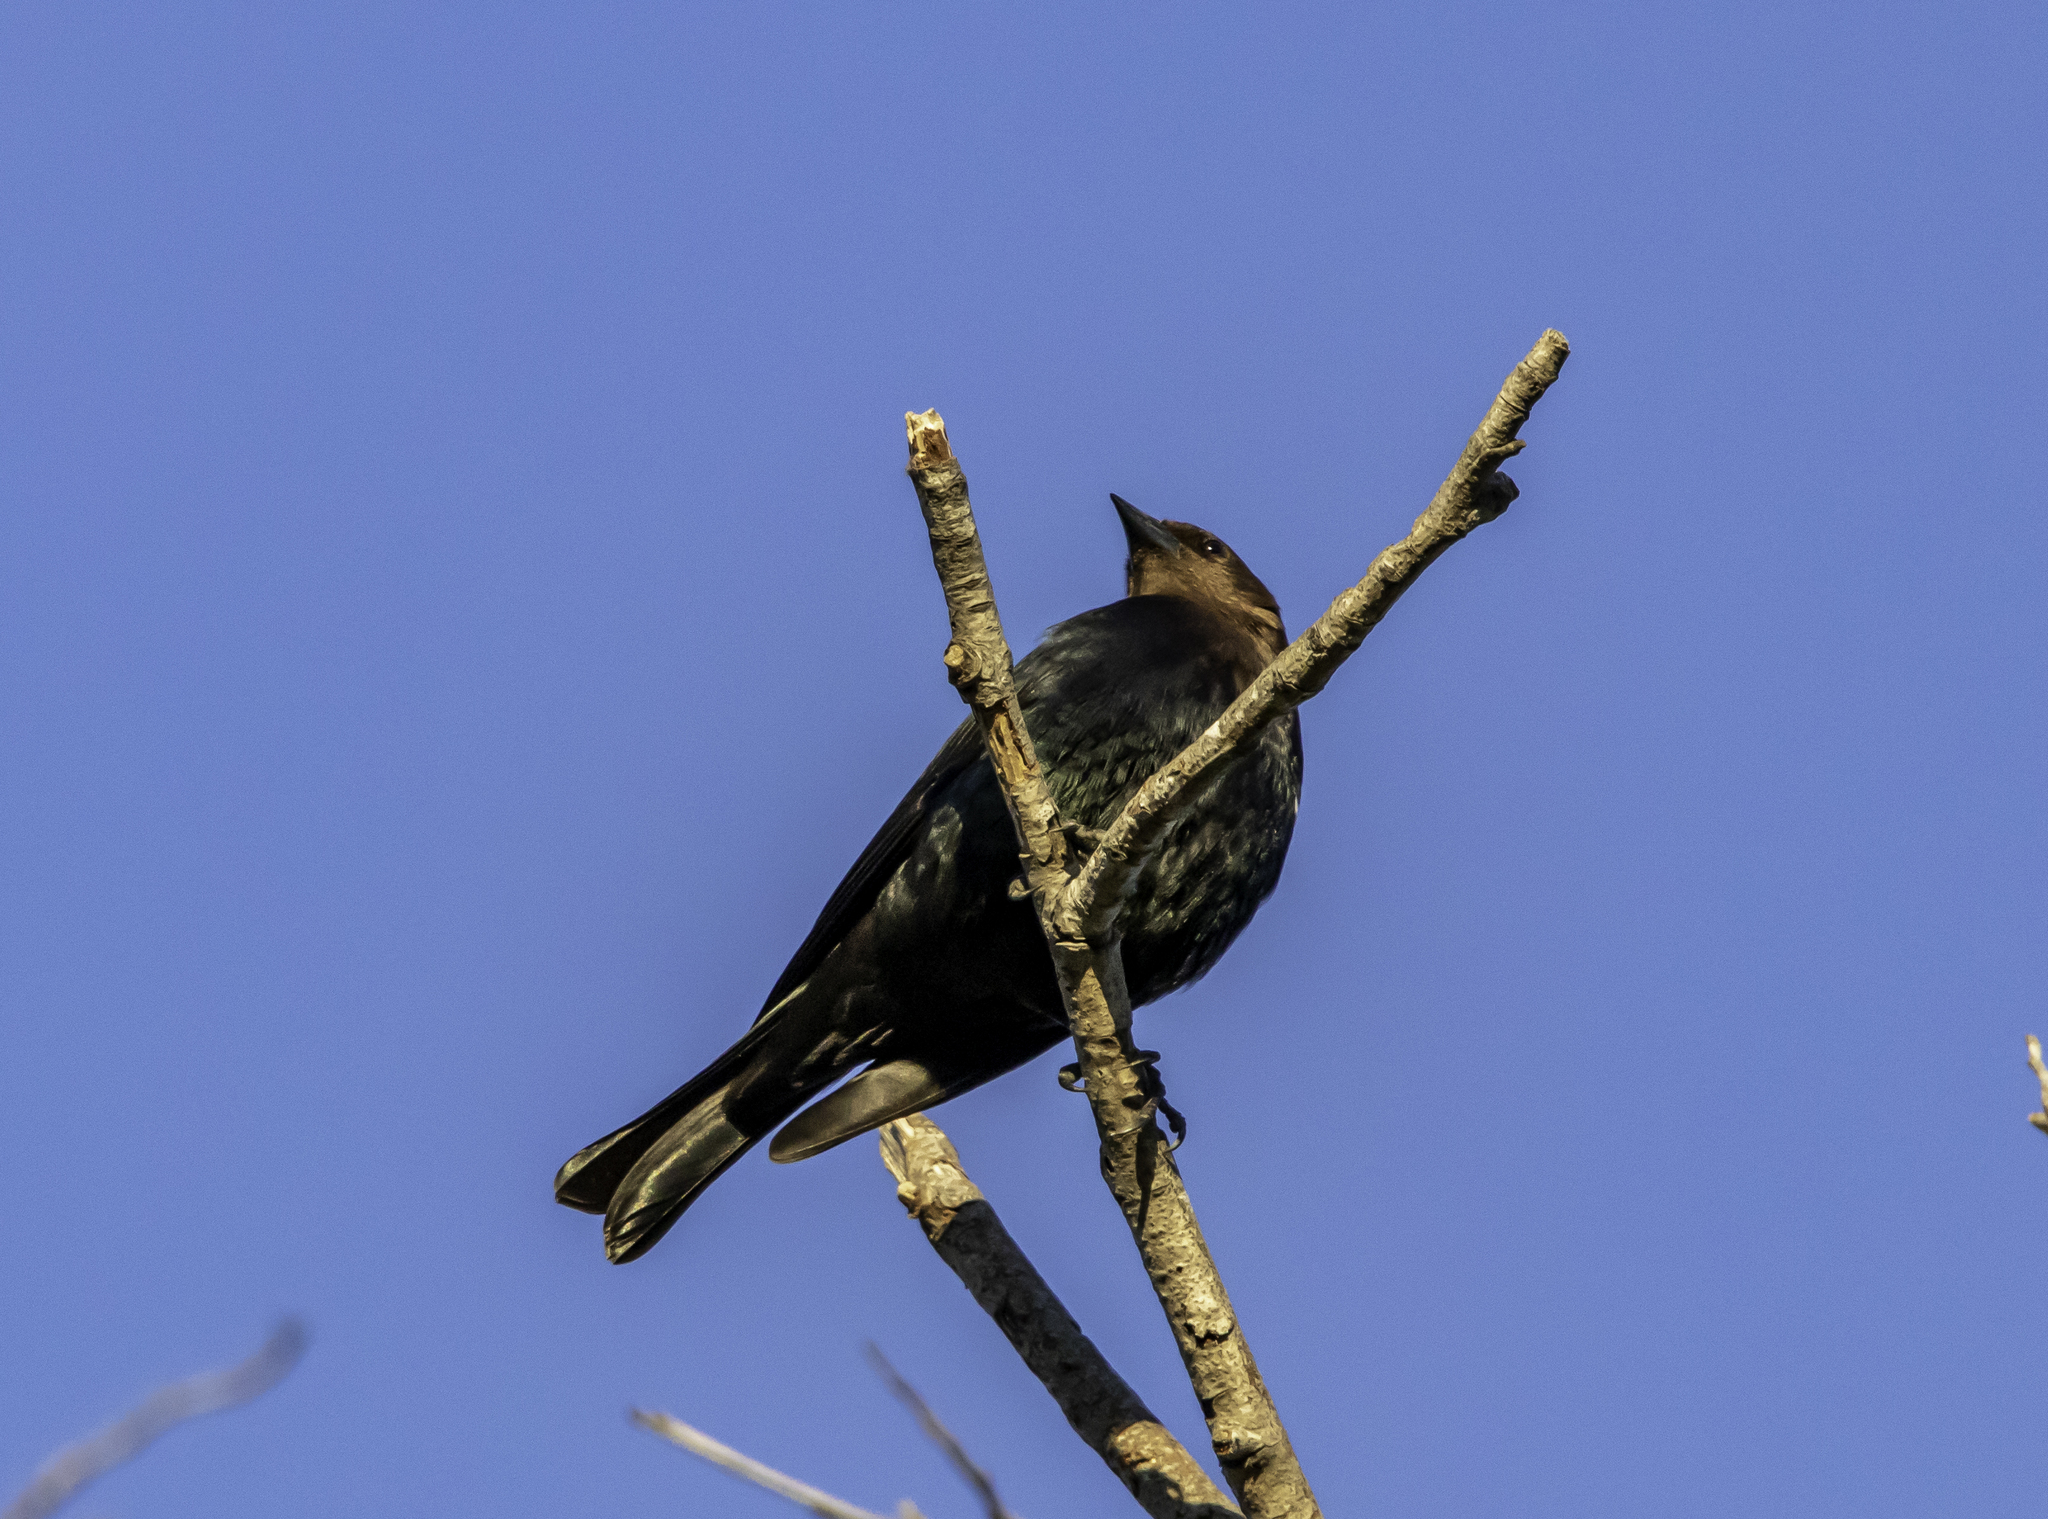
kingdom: Animalia
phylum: Chordata
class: Aves
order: Passeriformes
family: Icteridae
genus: Molothrus
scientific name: Molothrus ater
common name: Brown-headed cowbird
